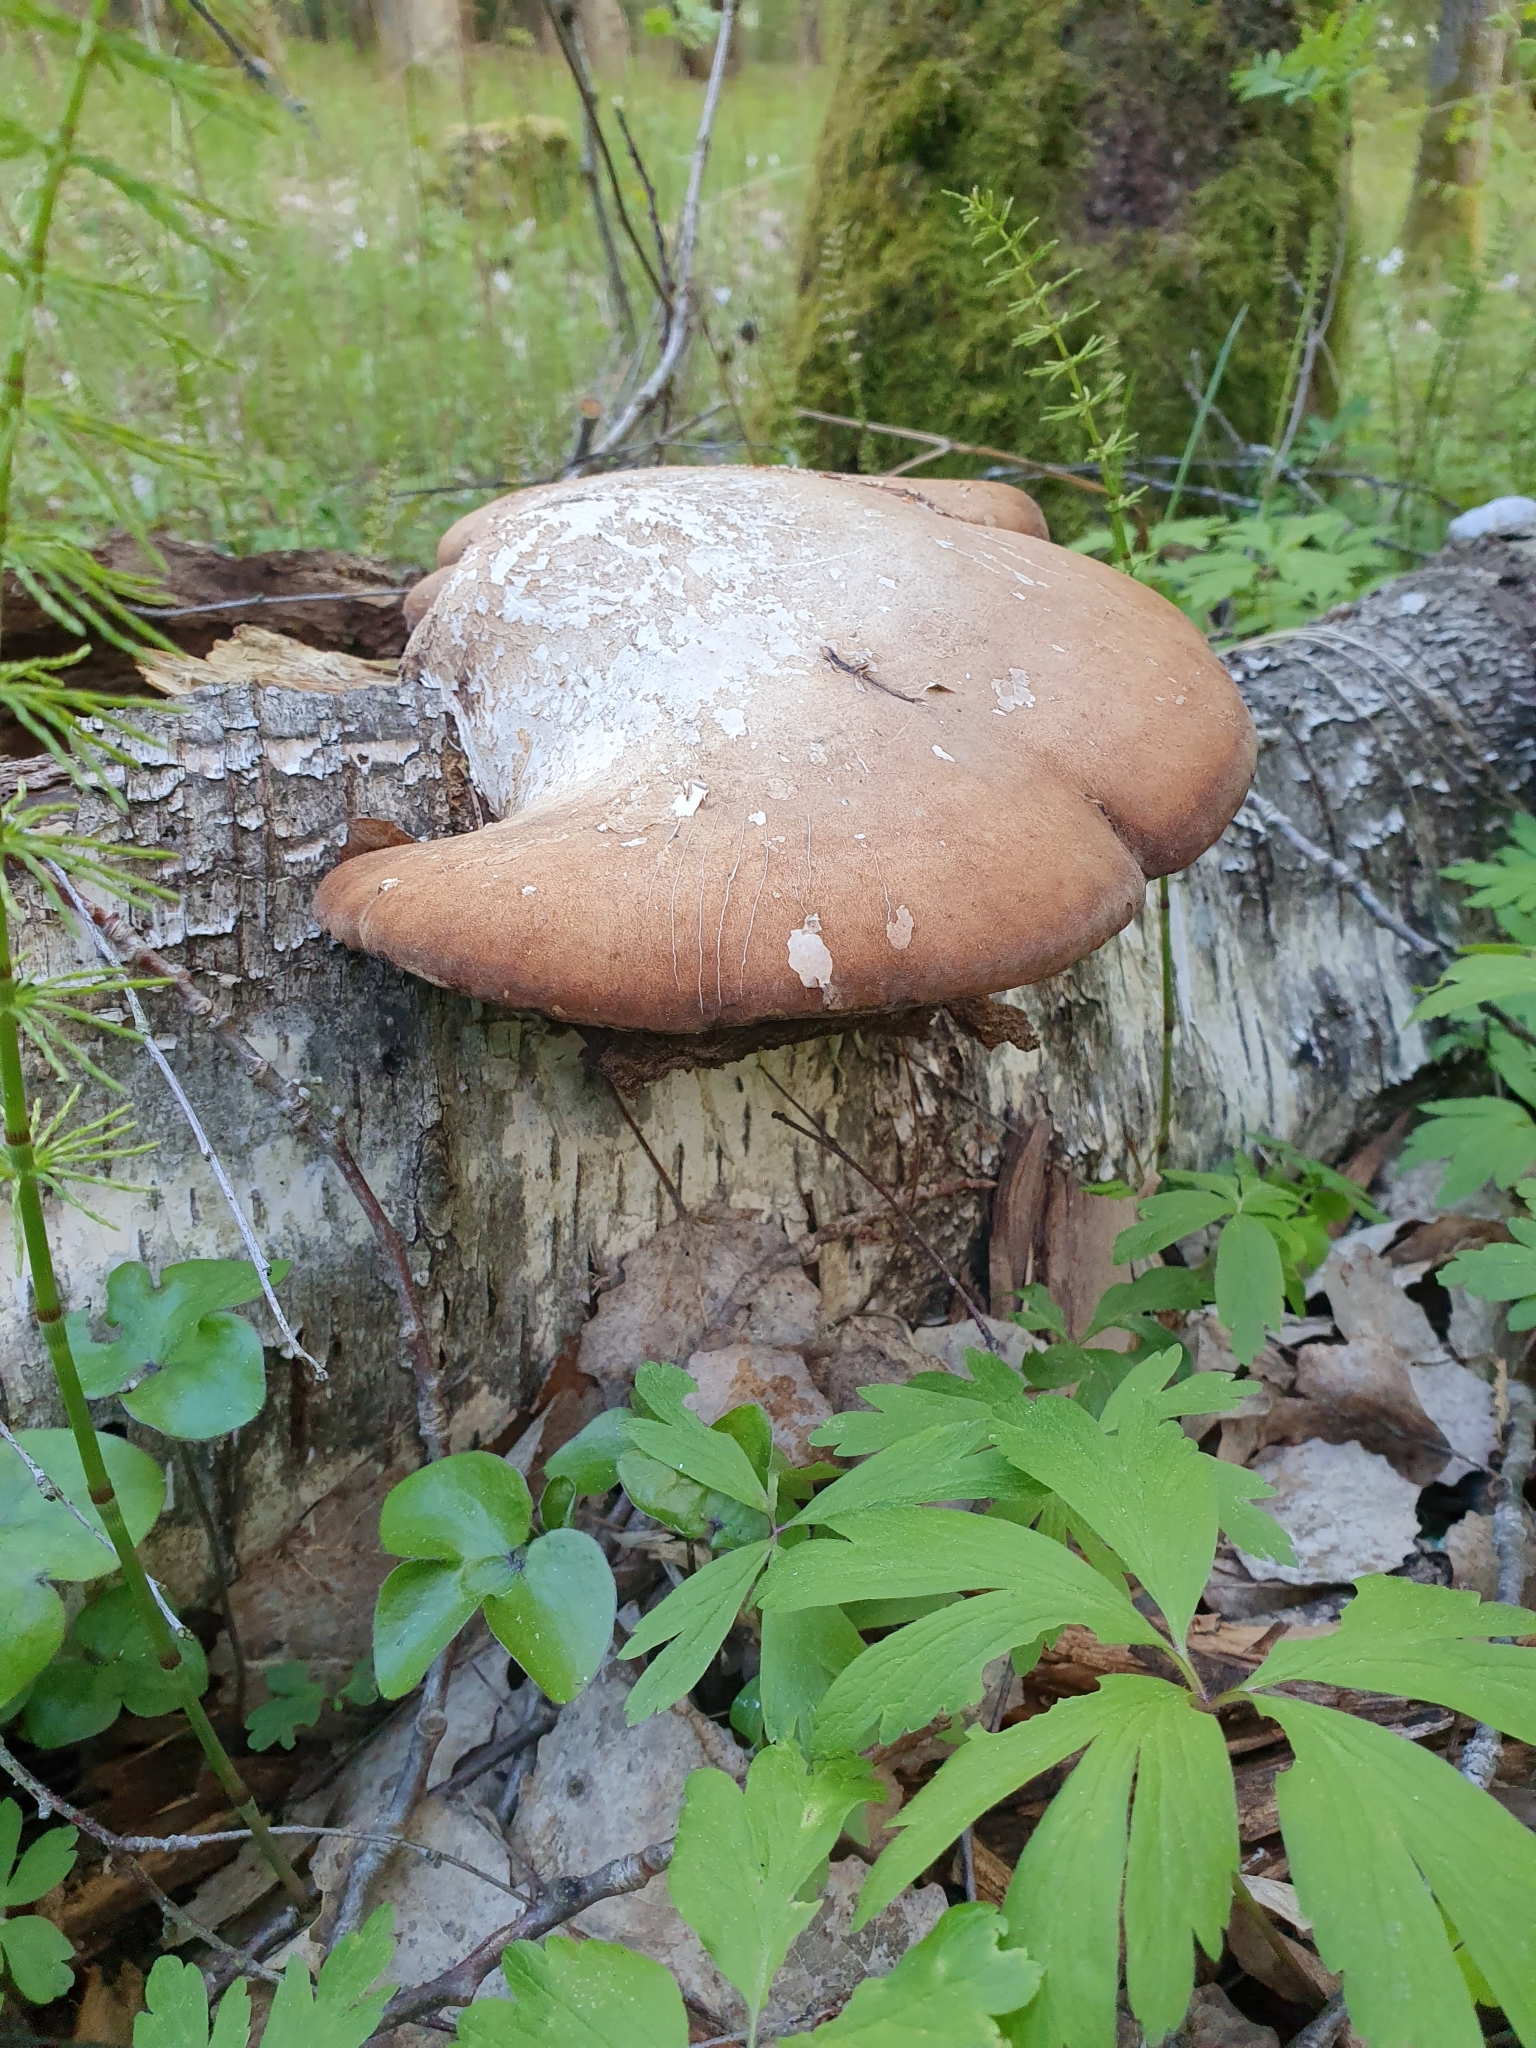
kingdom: Fungi
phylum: Basidiomycota
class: Agaricomycetes
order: Polyporales
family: Fomitopsidaceae
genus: Fomitopsis
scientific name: Fomitopsis betulina
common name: Birch polypore
